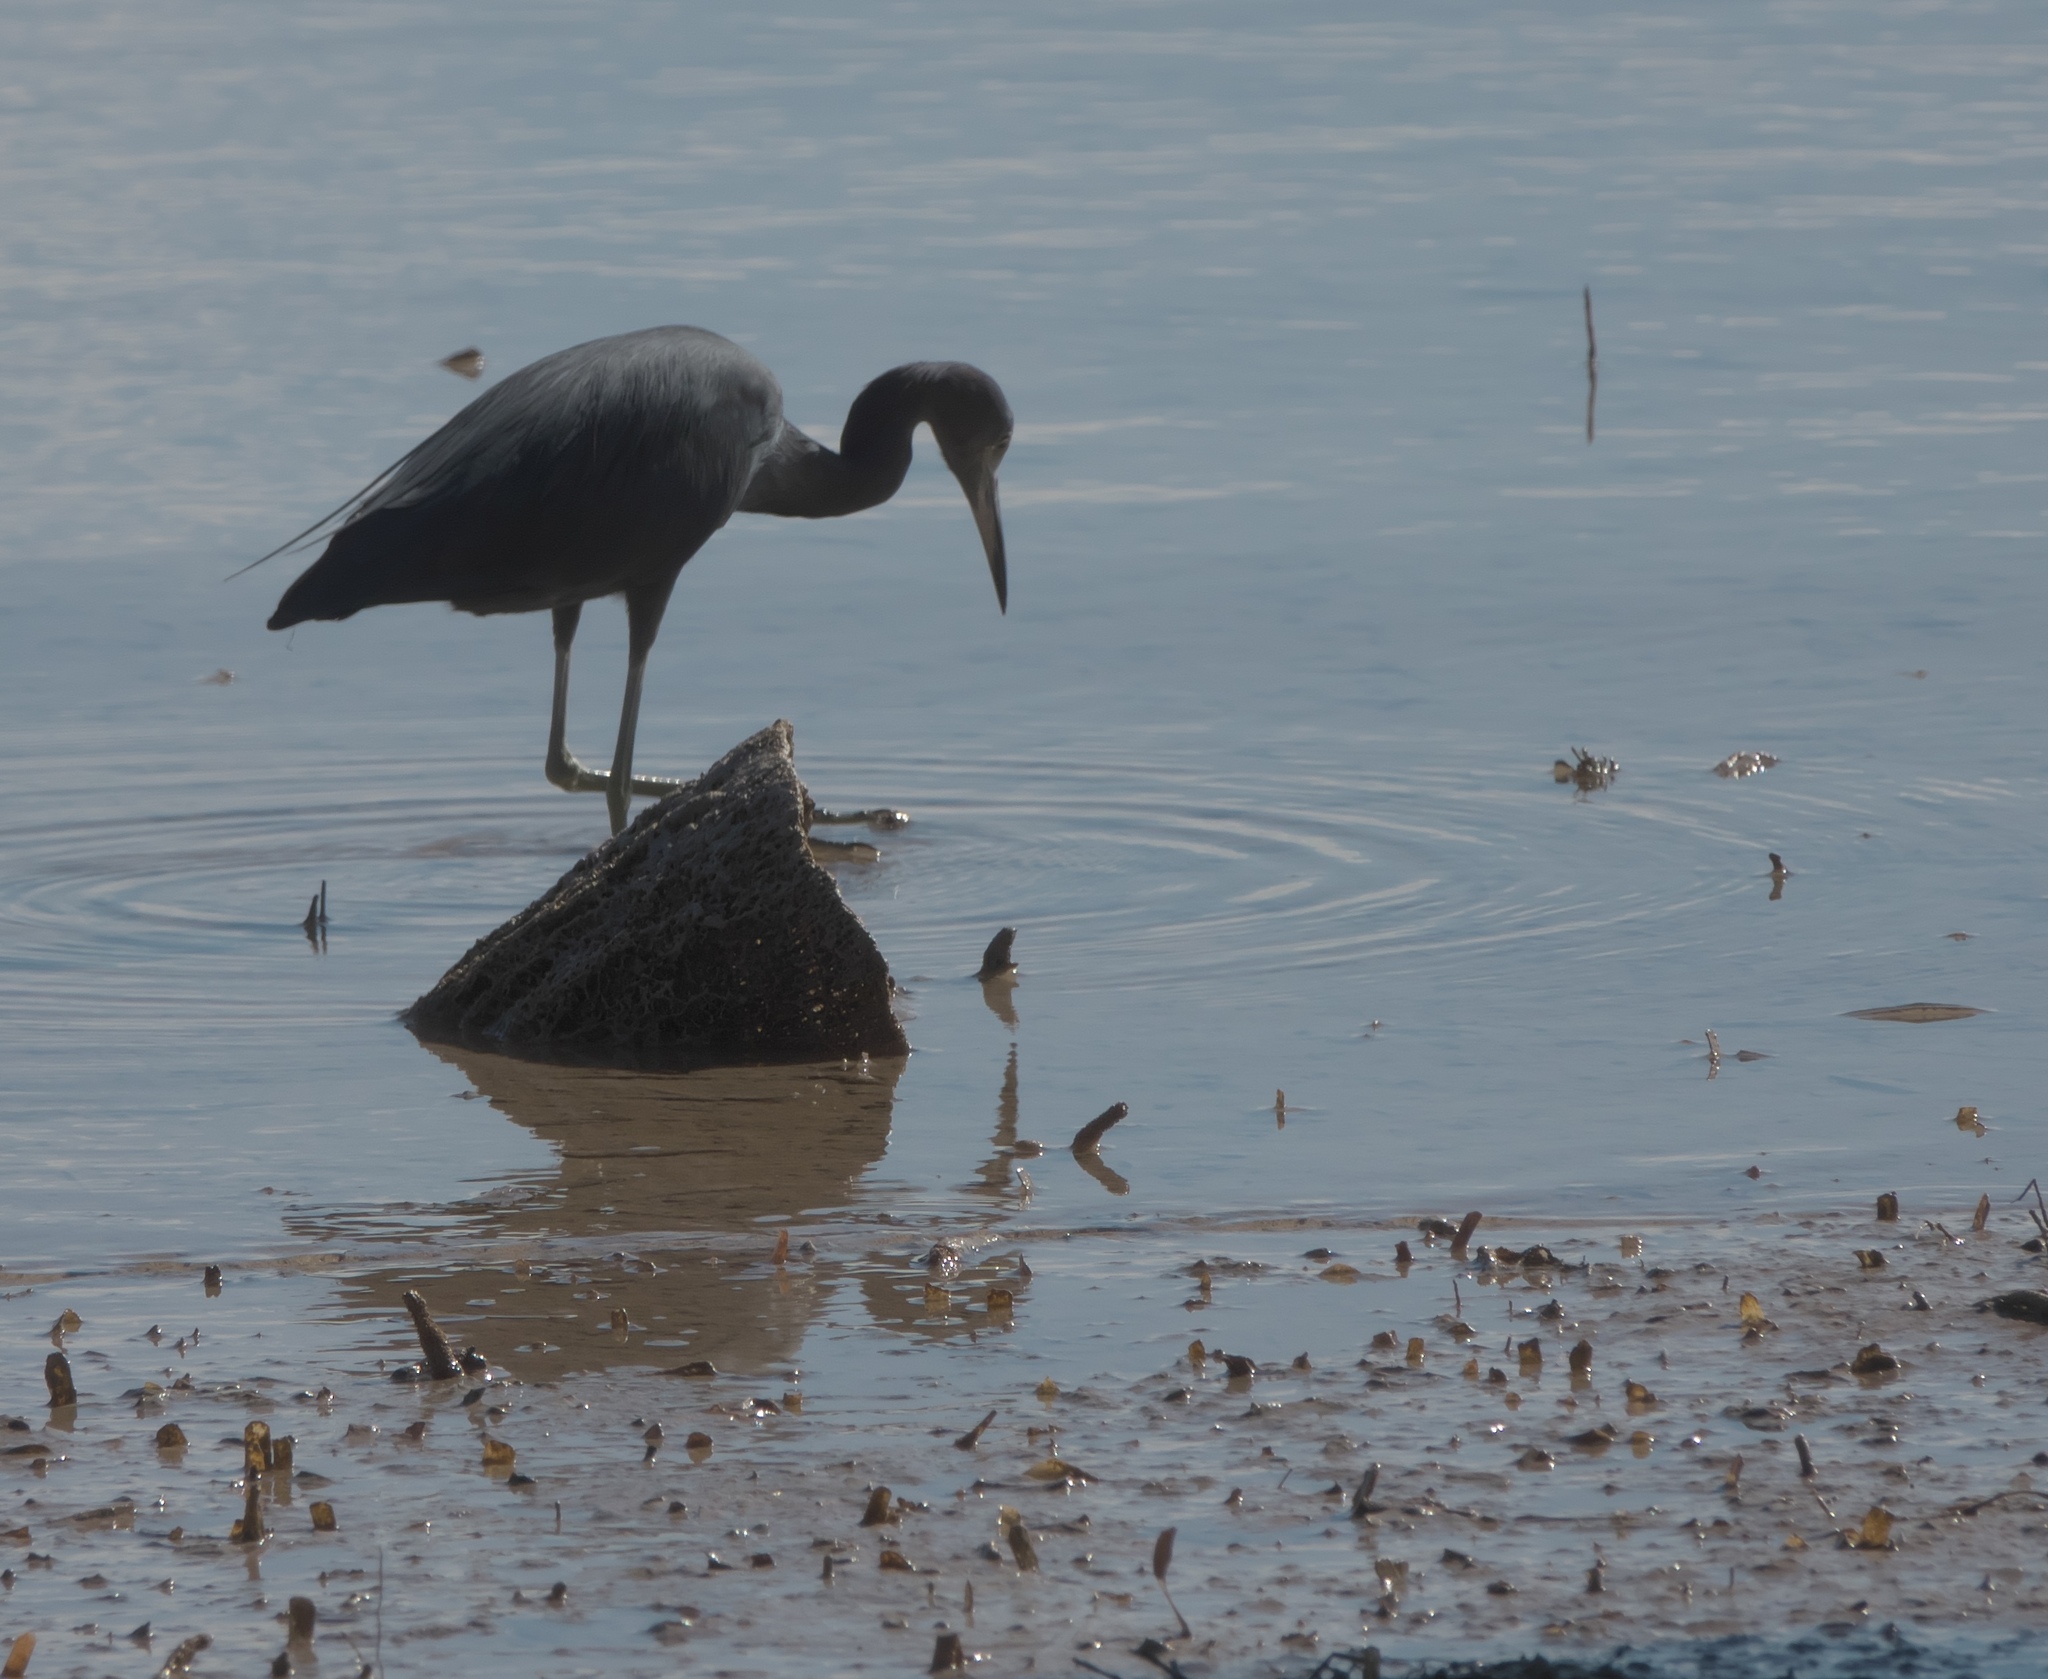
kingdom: Animalia
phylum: Chordata
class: Aves
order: Pelecaniformes
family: Ardeidae
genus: Egretta
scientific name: Egretta caerulea
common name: Little blue heron
